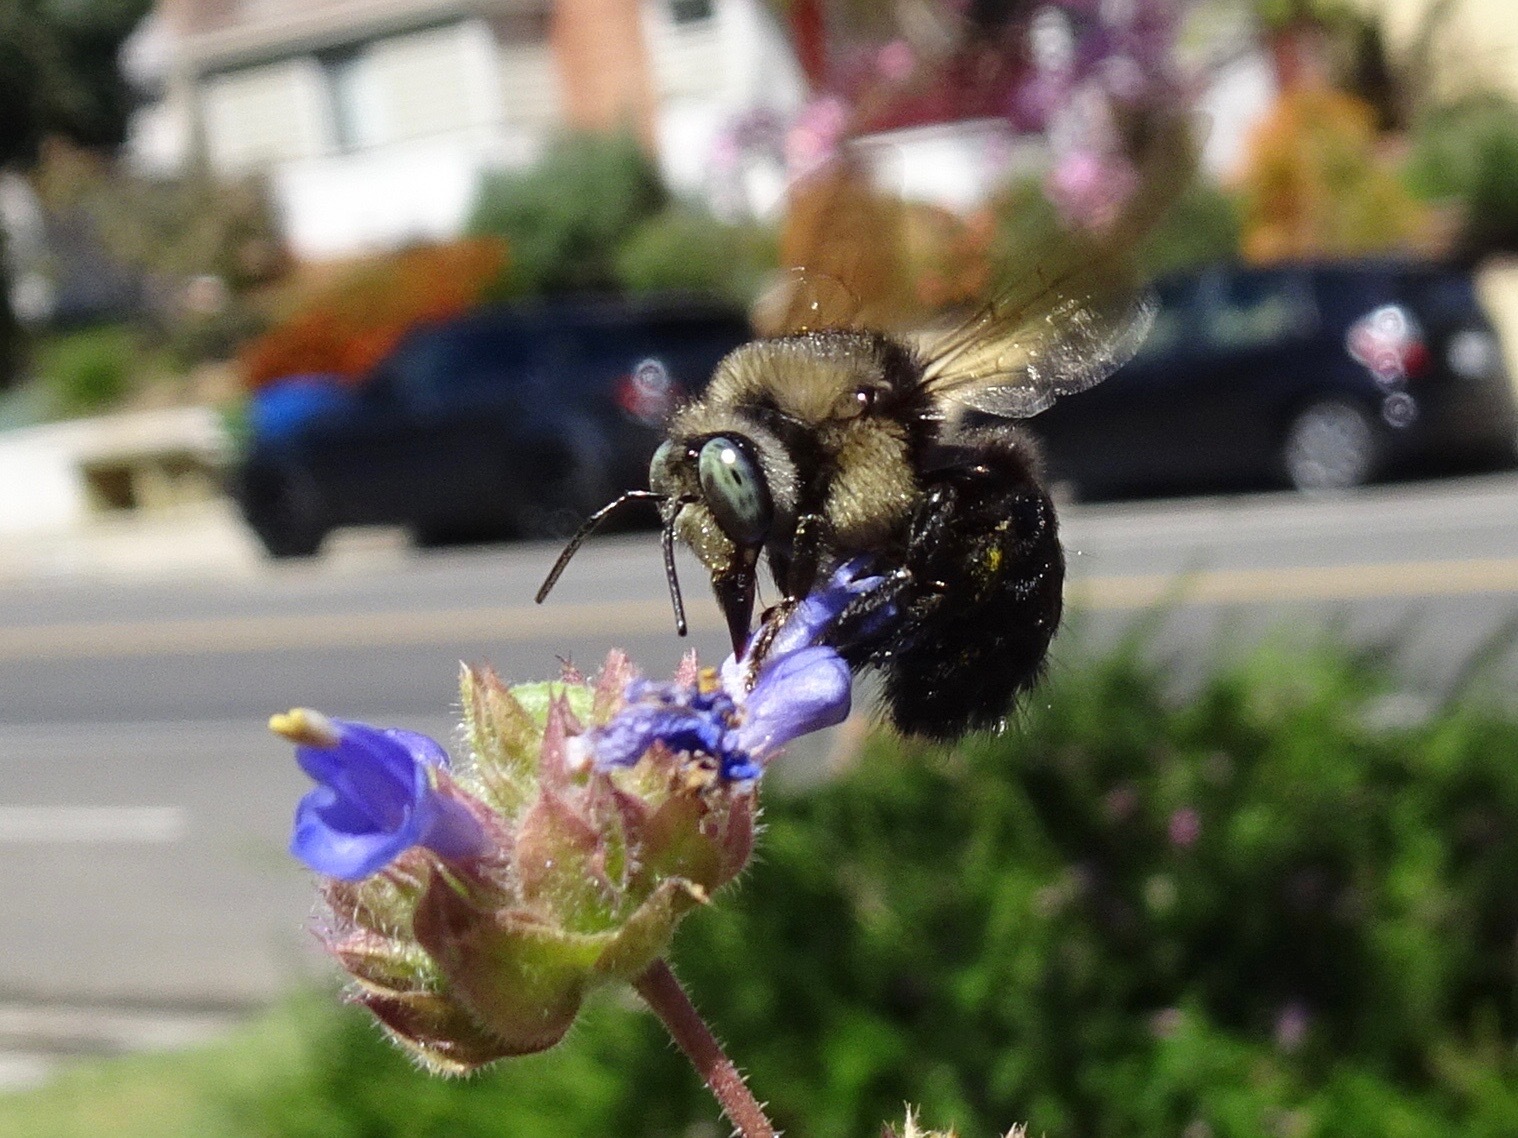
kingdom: Animalia
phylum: Arthropoda
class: Insecta
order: Hymenoptera
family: Apidae
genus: Xylocopa
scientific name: Xylocopa tabaniformis
